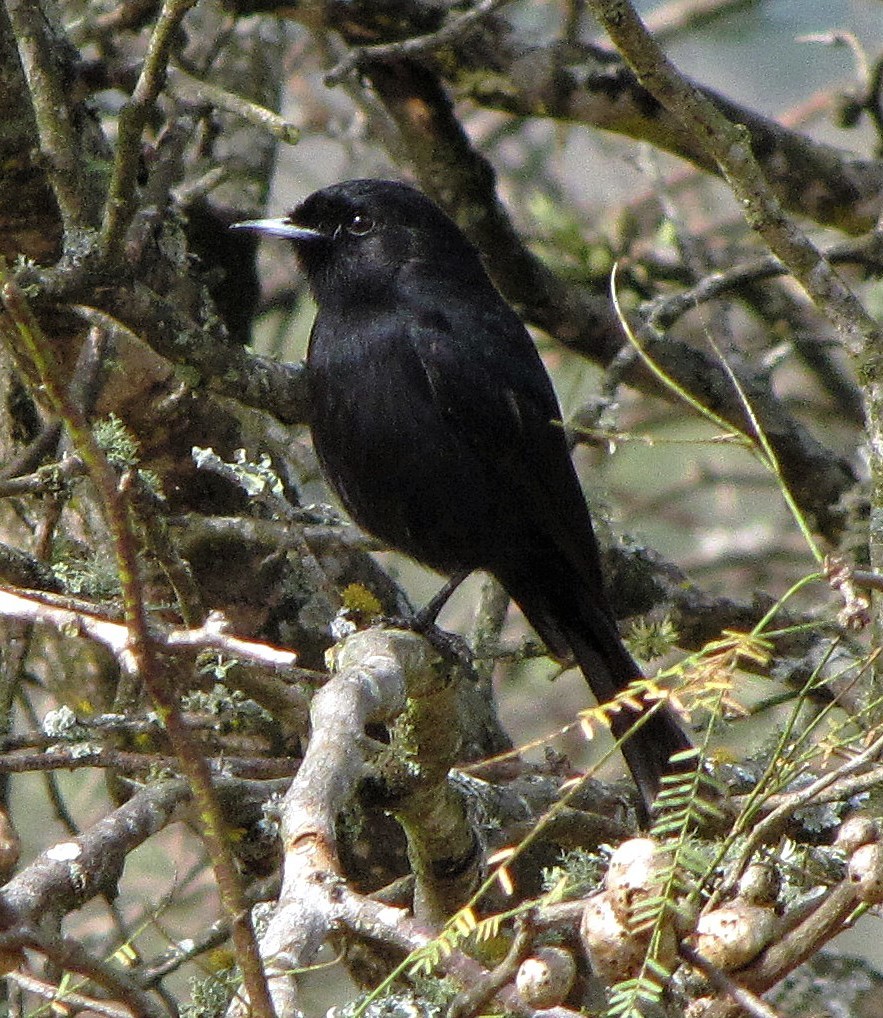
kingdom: Animalia
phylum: Chordata
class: Aves
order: Passeriformes
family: Tyrannidae
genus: Knipolegus
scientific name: Knipolegus aterrimus
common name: White-winged black tyrant
